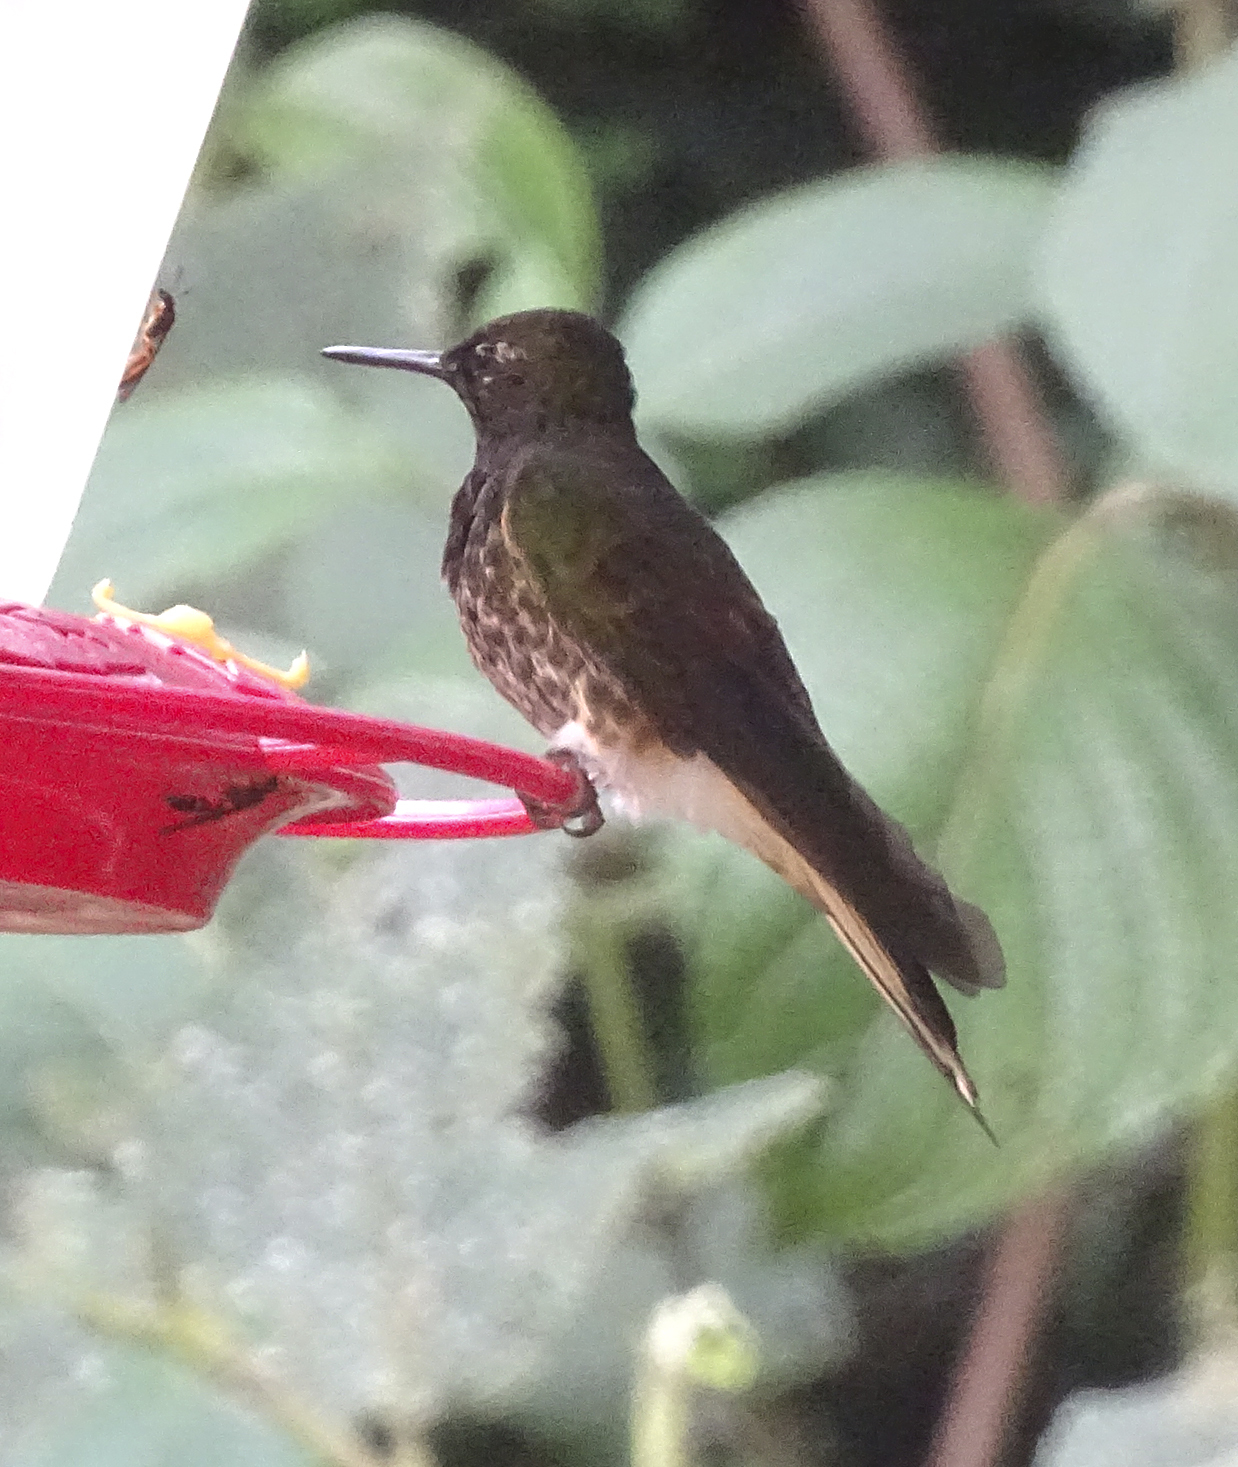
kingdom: Animalia
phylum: Chordata
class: Aves
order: Apodiformes
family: Trochilidae
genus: Boissonneaua
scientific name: Boissonneaua flavescens
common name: Buff-tailed coronet
